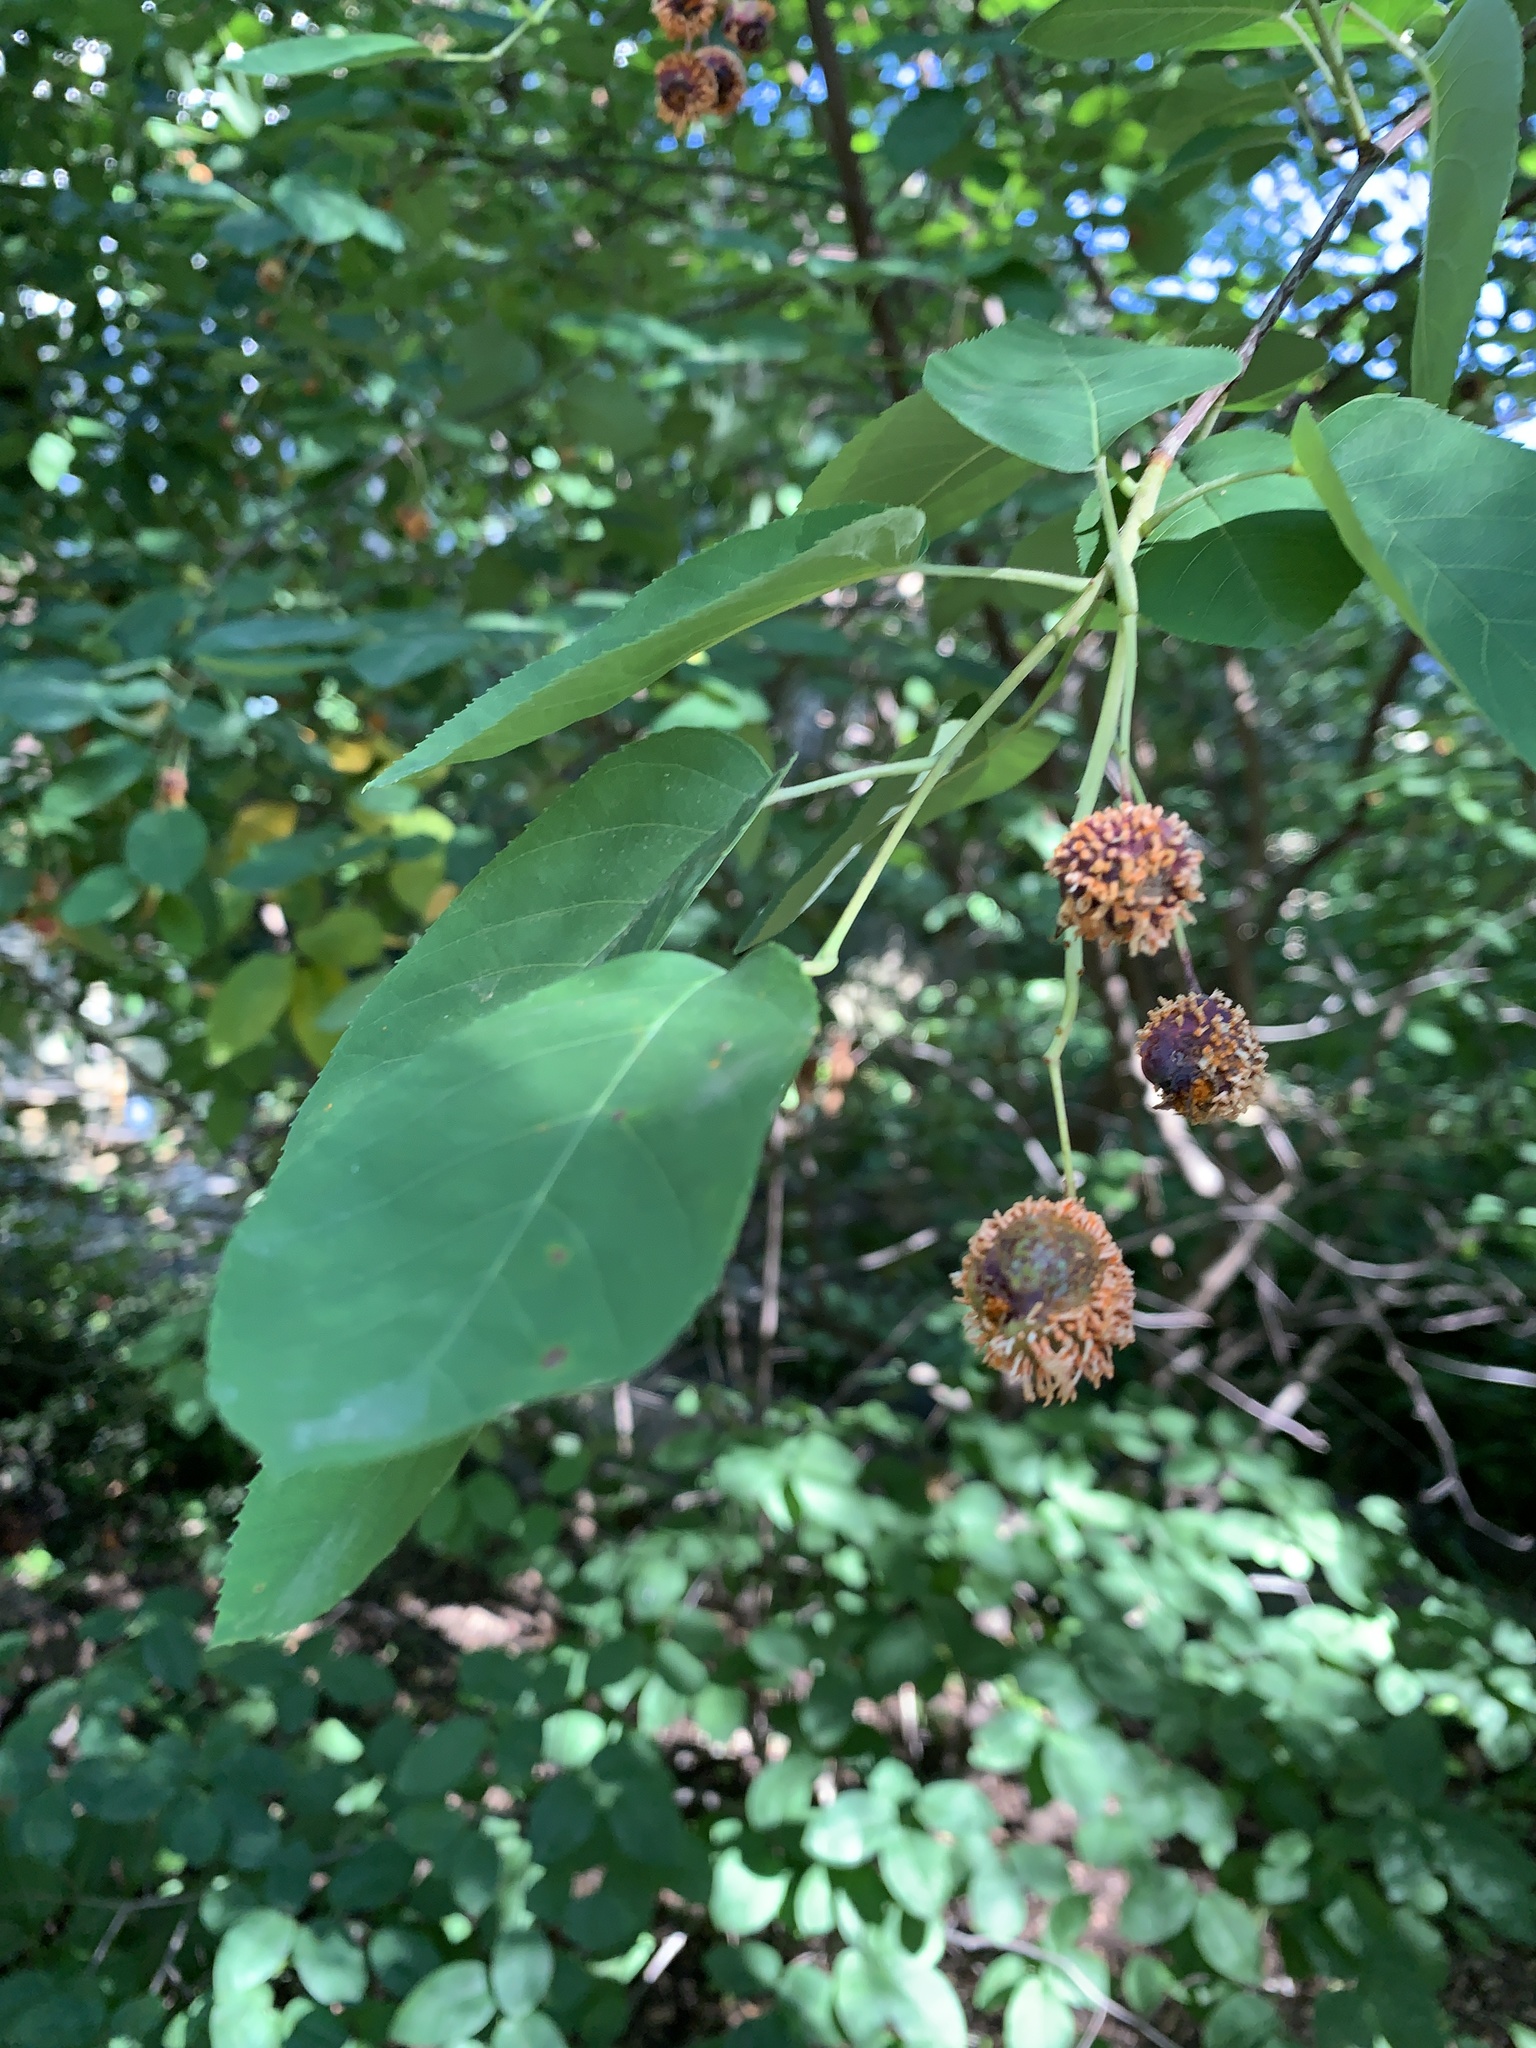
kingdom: Fungi
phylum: Basidiomycota
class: Pucciniomycetes
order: Pucciniales
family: Gymnosporangiaceae
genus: Gymnosporangium
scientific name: Gymnosporangium clavipes
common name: Quince rust
